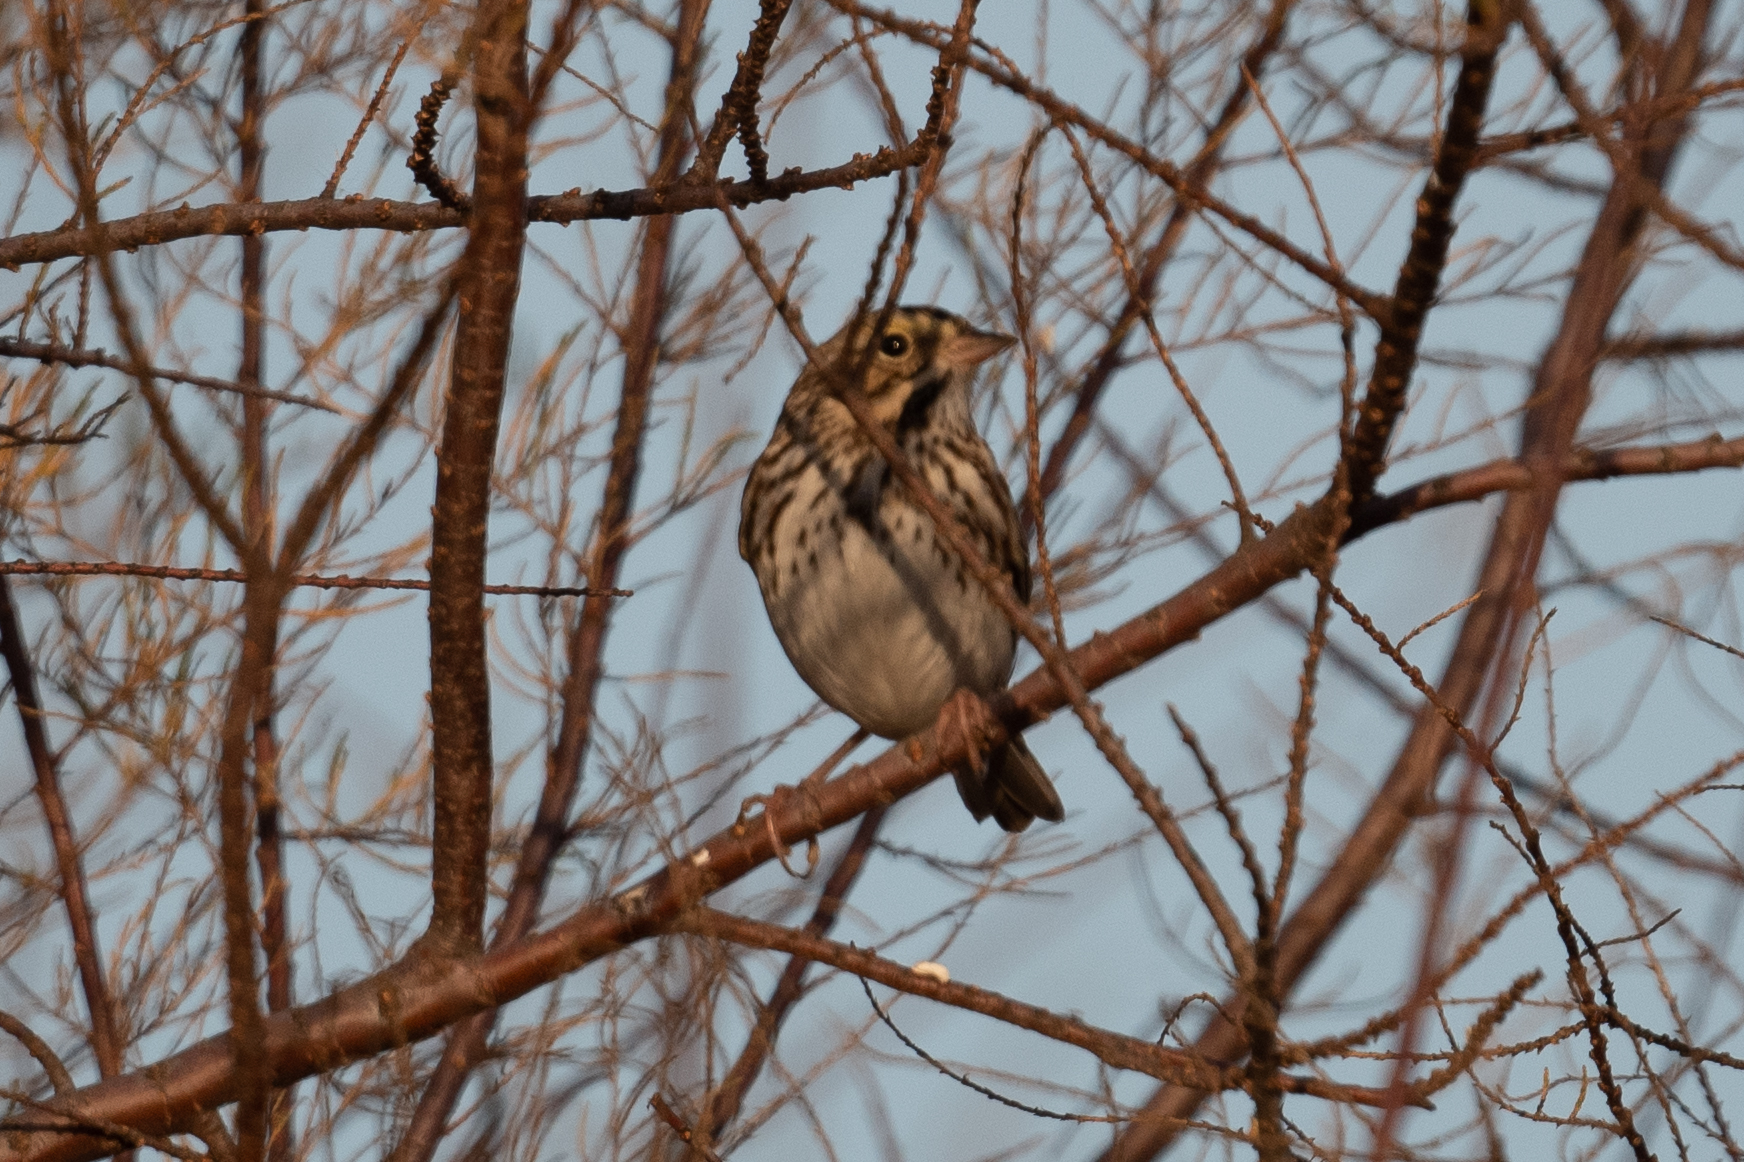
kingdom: Animalia
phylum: Chordata
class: Aves
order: Passeriformes
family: Passerellidae
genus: Passerculus
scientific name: Passerculus sandwichensis
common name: Savannah sparrow
